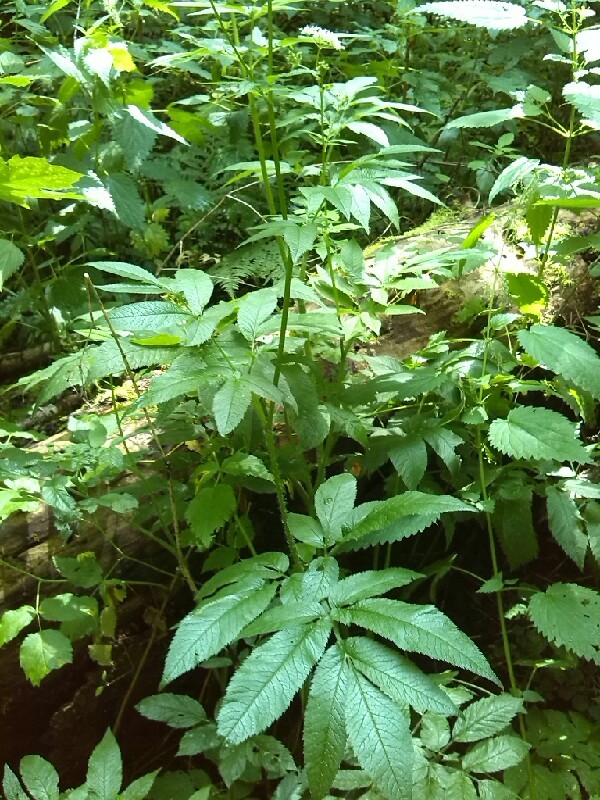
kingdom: Plantae
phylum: Tracheophyta
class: Magnoliopsida
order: Apiales
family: Apiaceae
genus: Chaerophyllum
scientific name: Chaerophyllum aromaticum
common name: Broadleaf chervil
